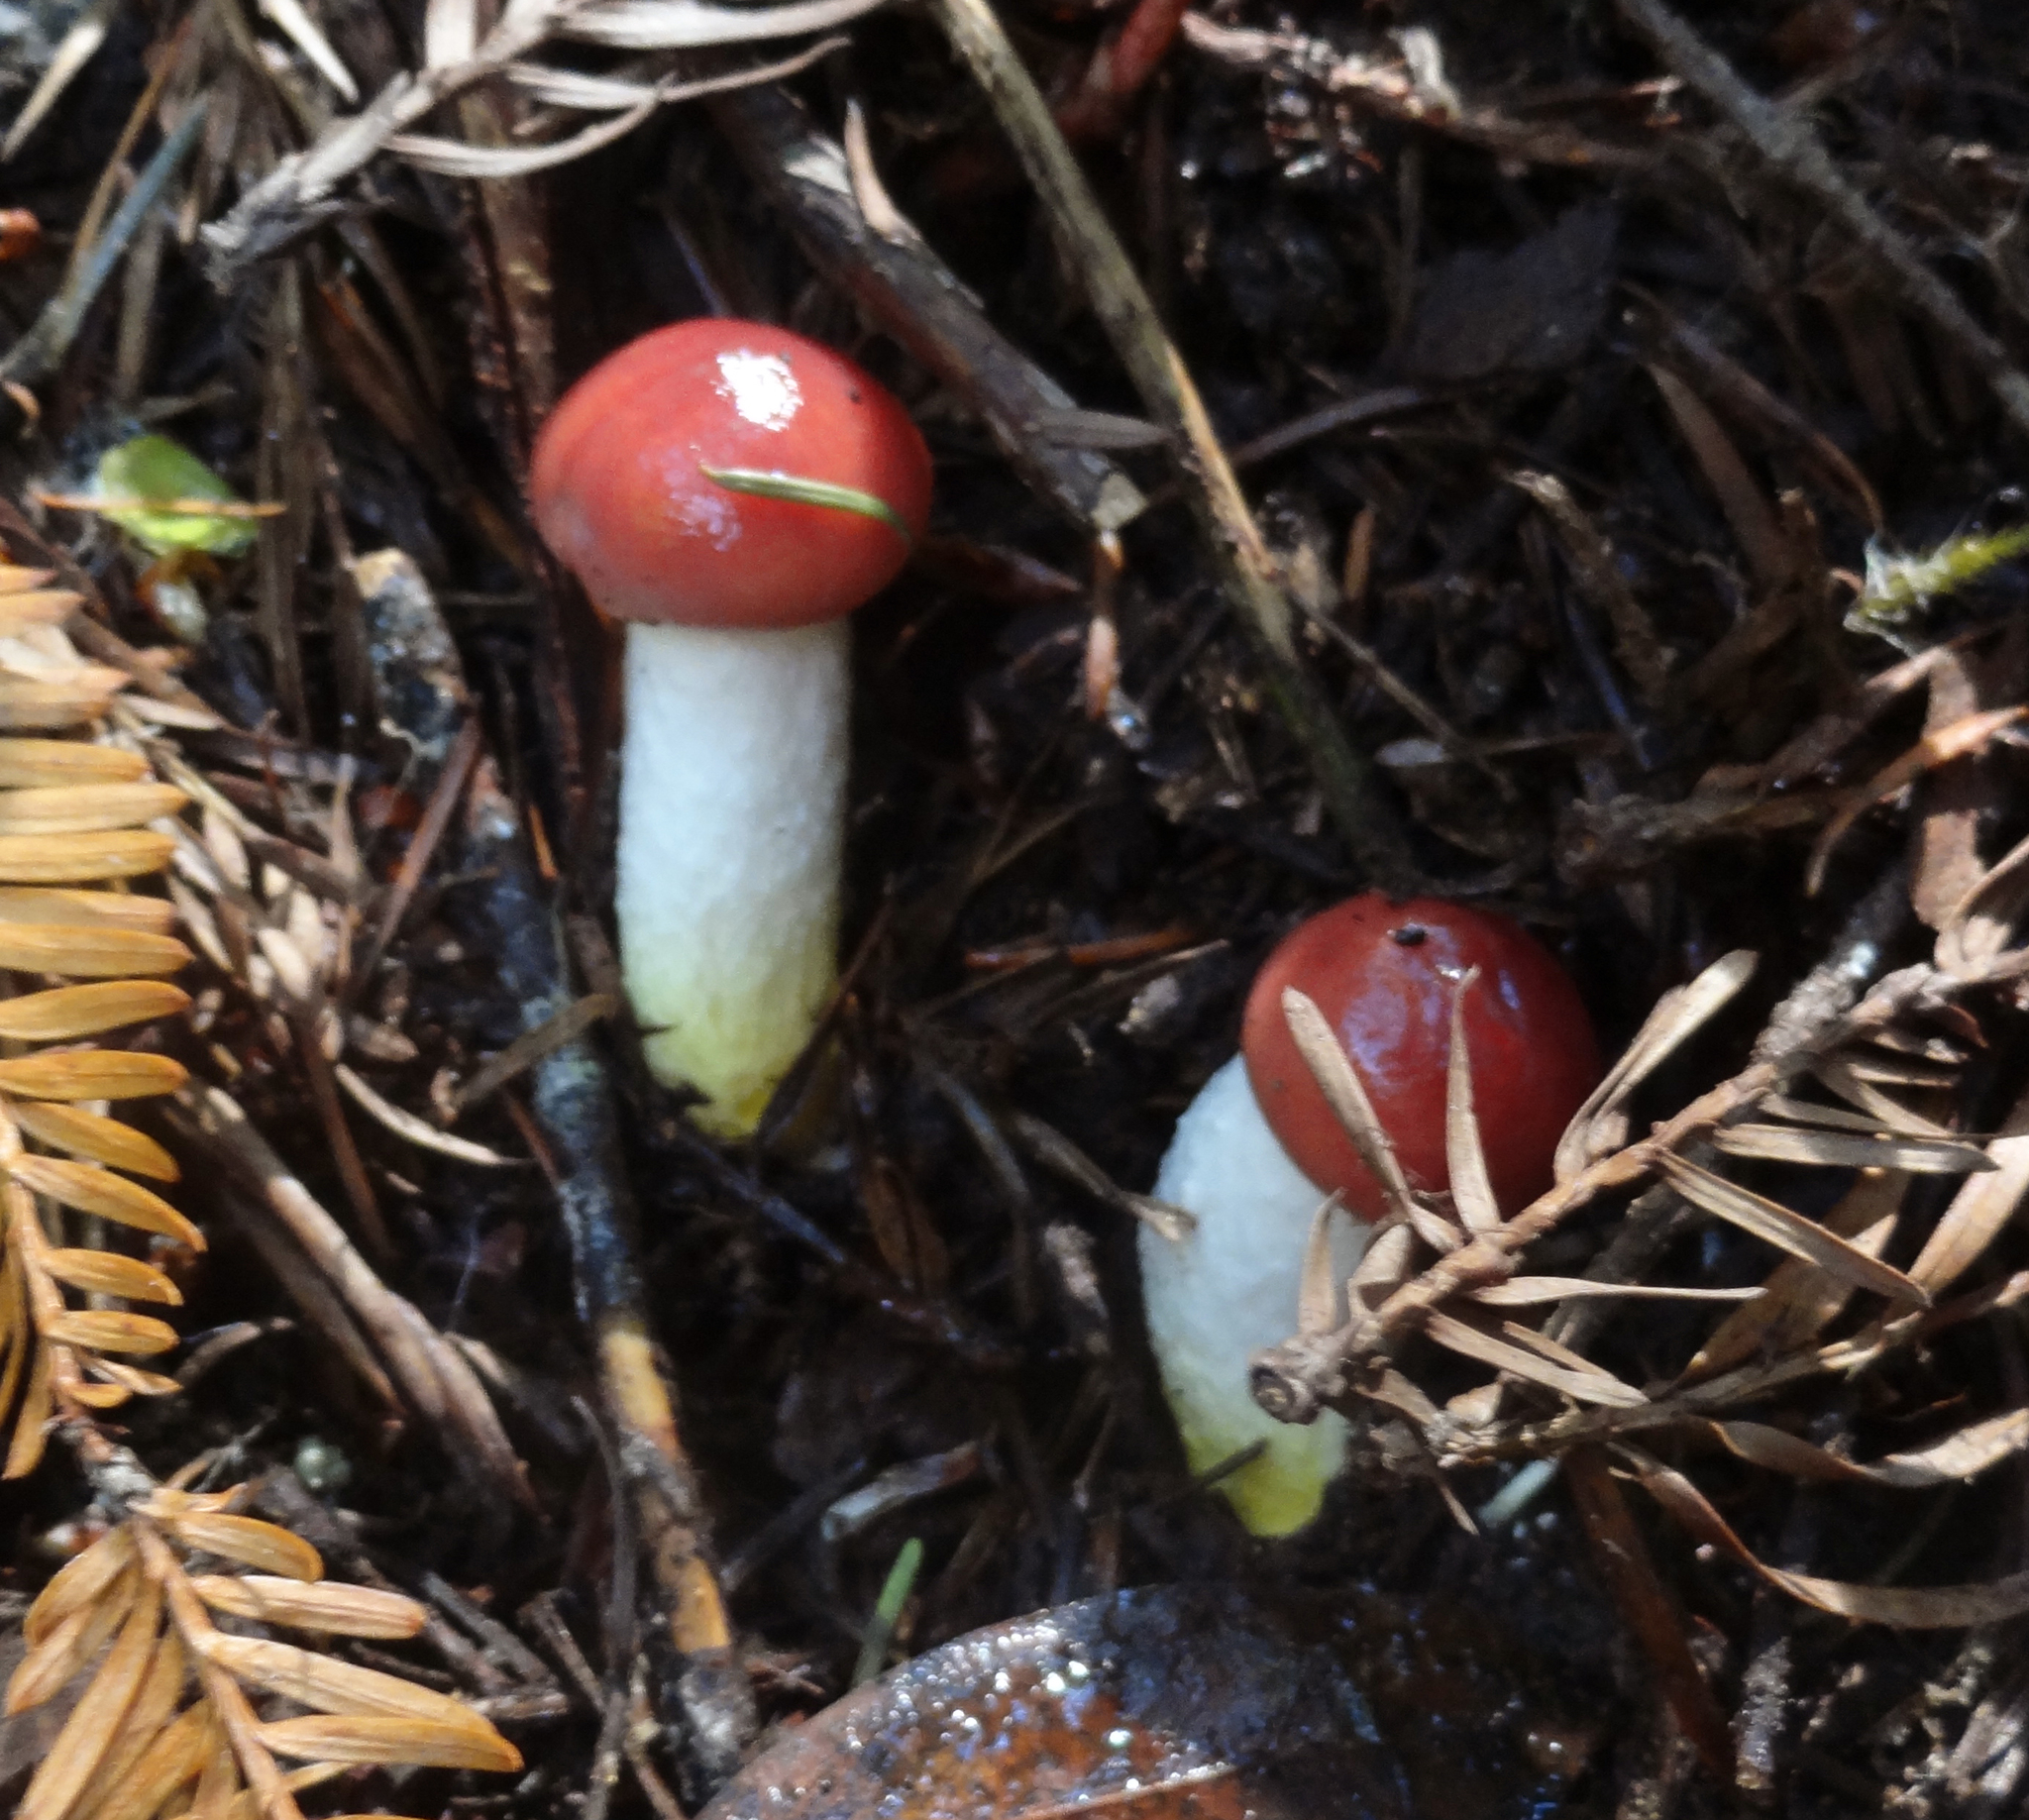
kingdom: Fungi
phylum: Basidiomycota
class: Agaricomycetes
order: Boletales
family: Gomphidiaceae
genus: Gomphidius
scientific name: Gomphidius subroseus
